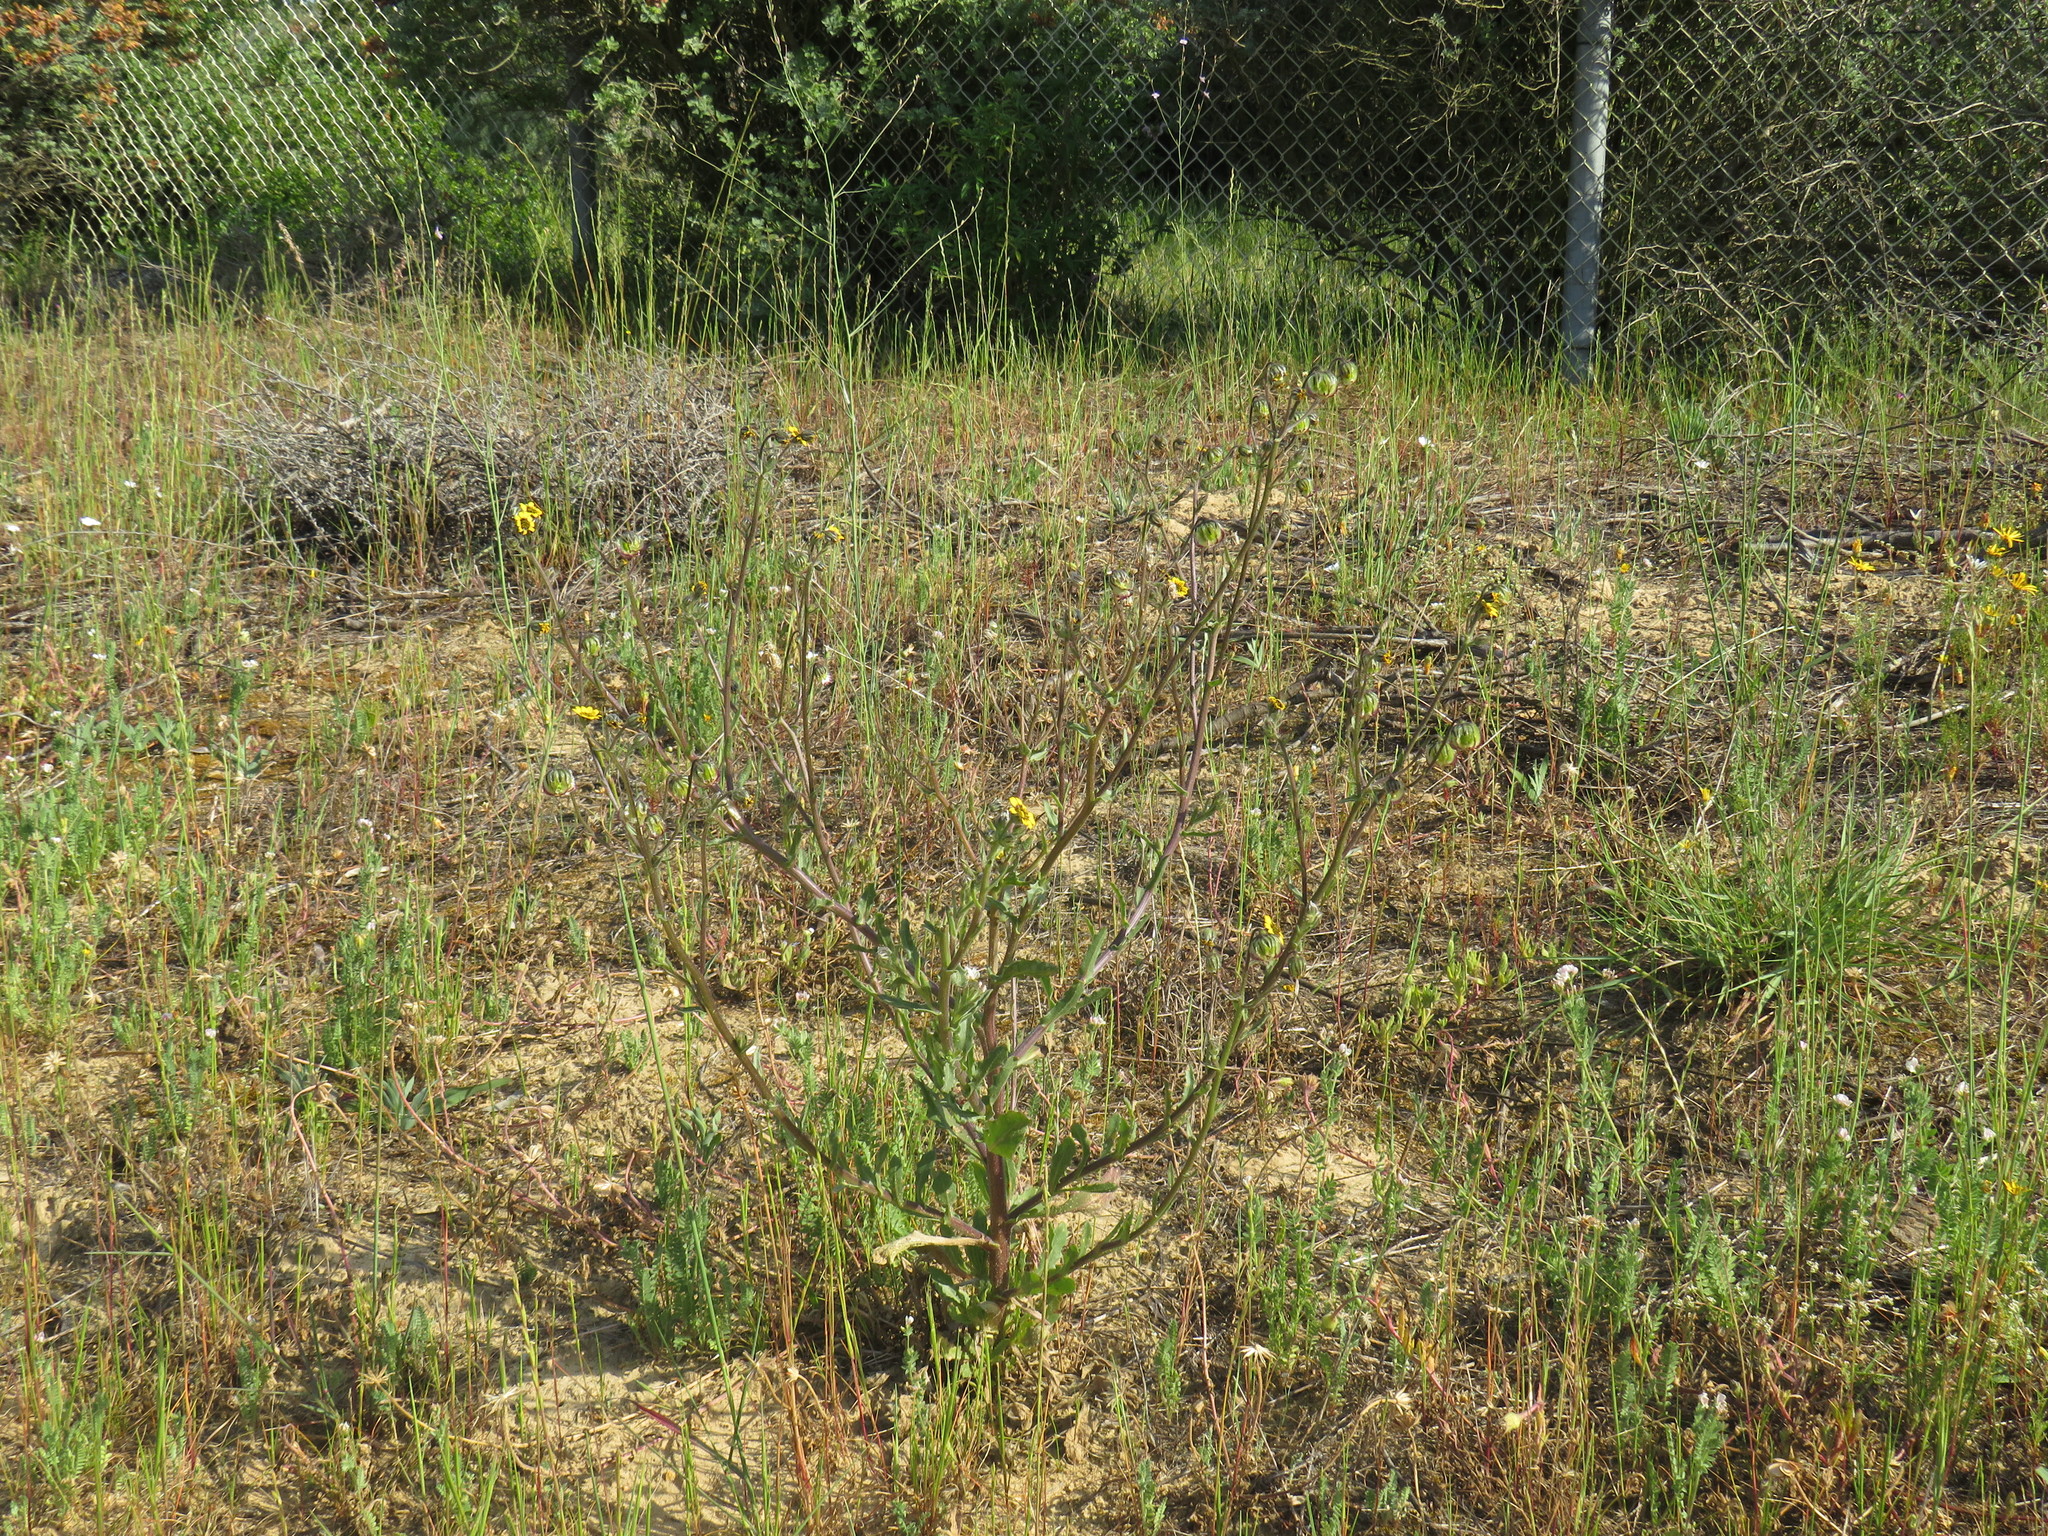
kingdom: Plantae
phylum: Tracheophyta
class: Magnoliopsida
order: Asterales
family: Asteraceae
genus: Osteospermum
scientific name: Osteospermum monstrosum
